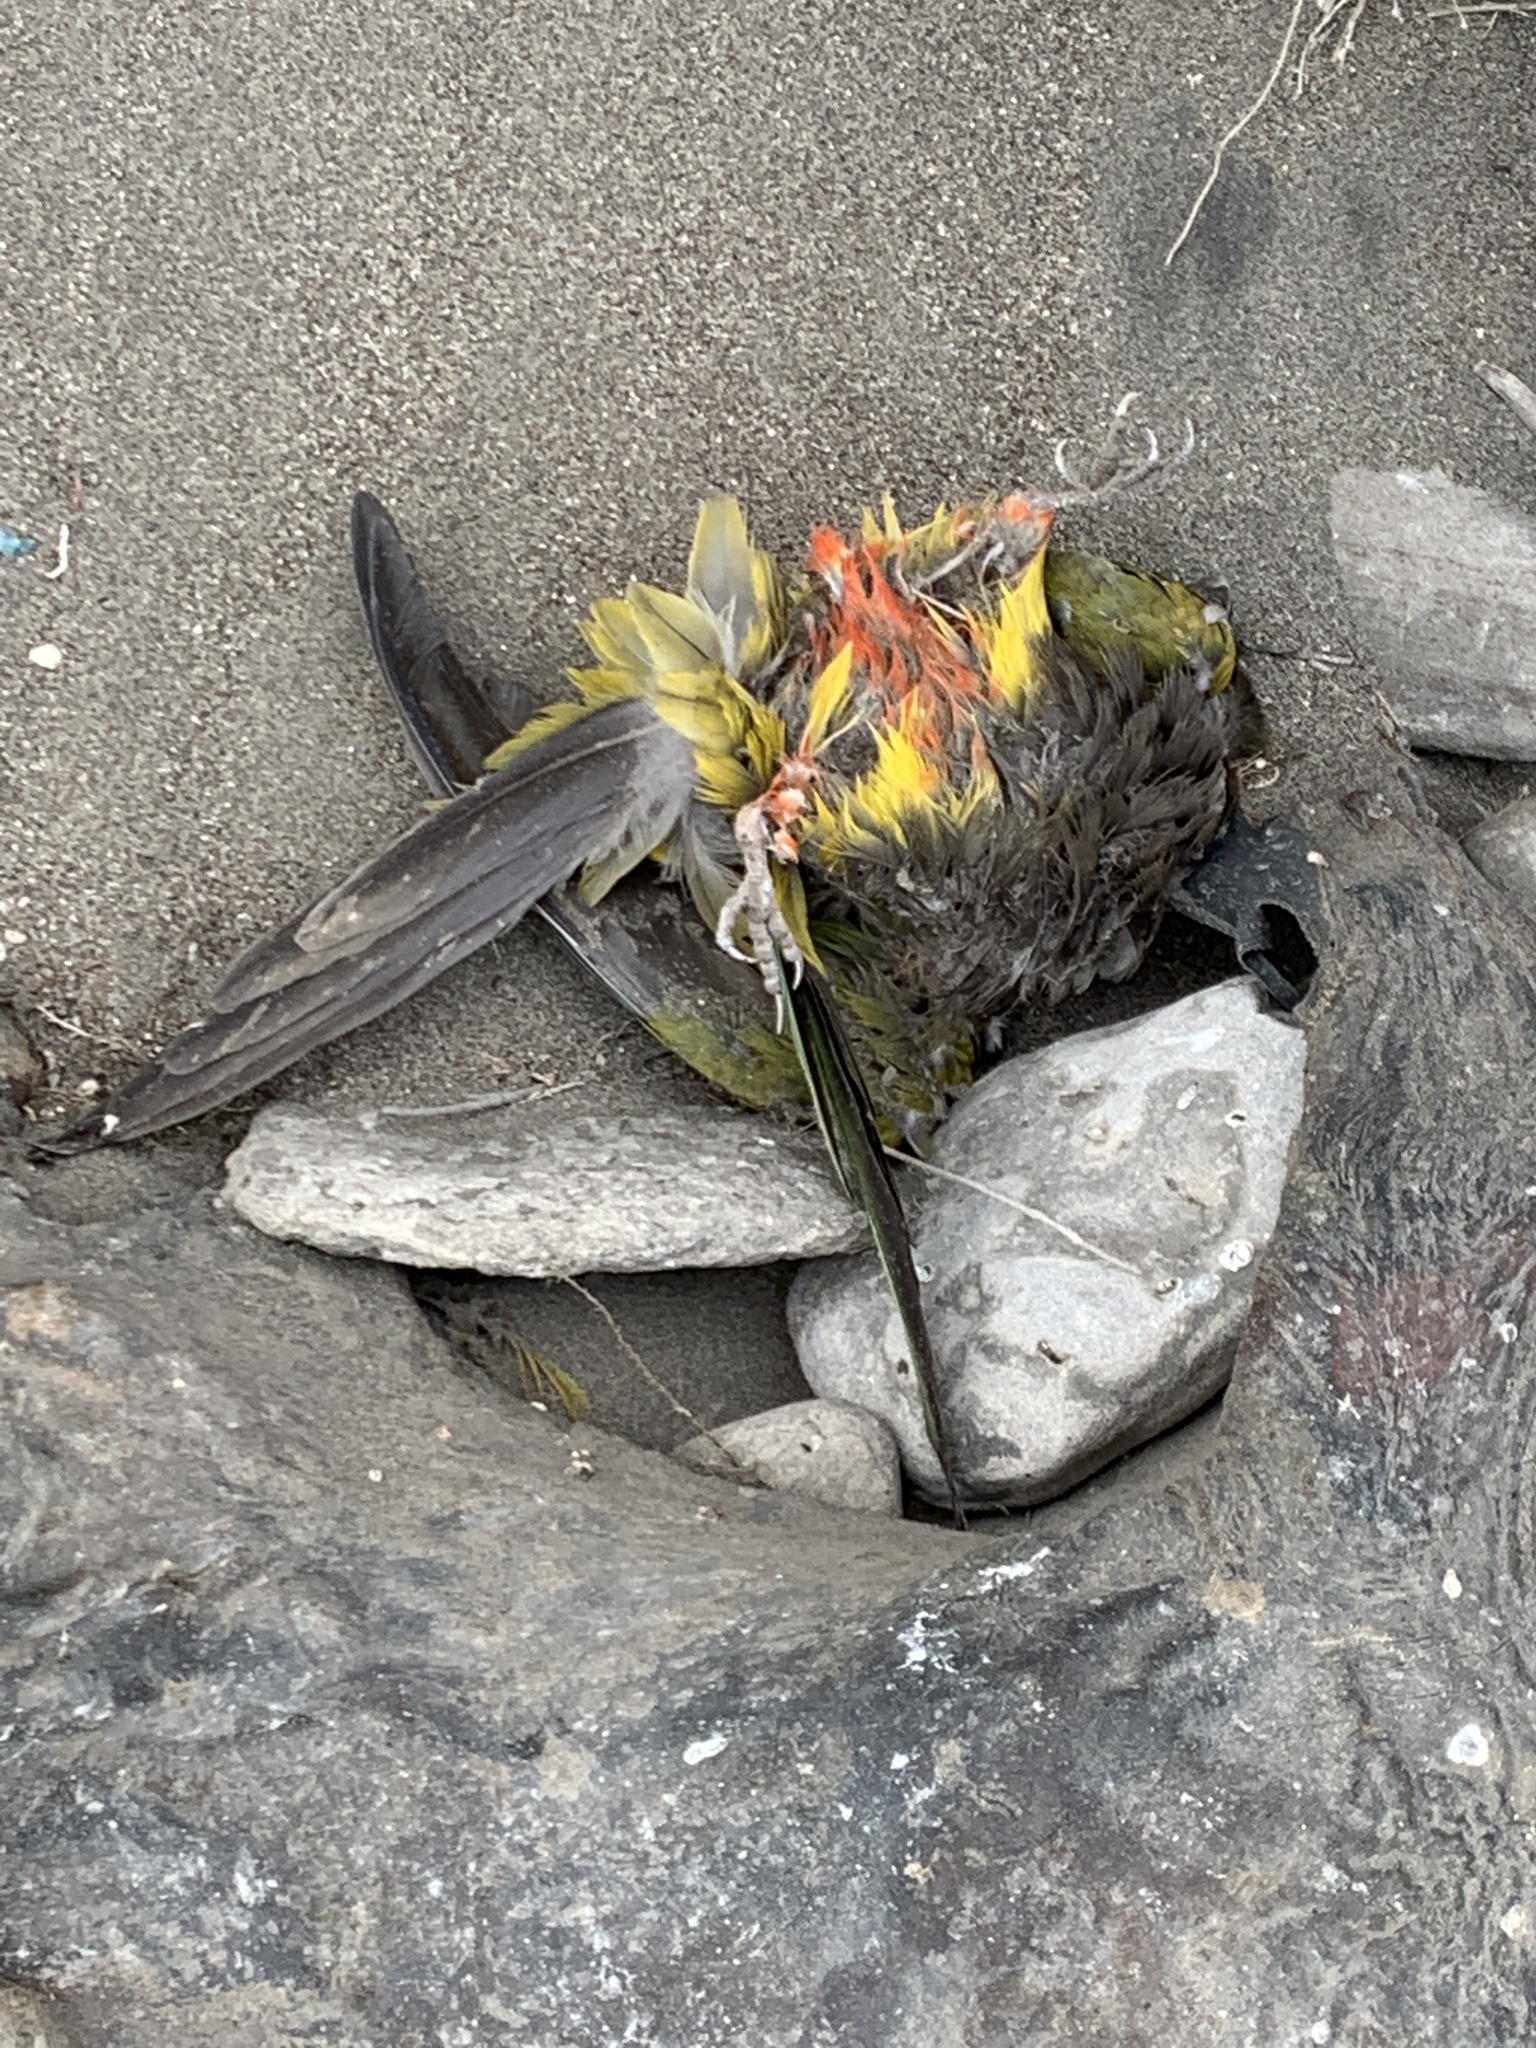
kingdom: Animalia
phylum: Chordata
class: Aves
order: Psittaciformes
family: Psittacidae
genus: Cyanoliseus
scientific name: Cyanoliseus patagonus
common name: Burrowing parrot
